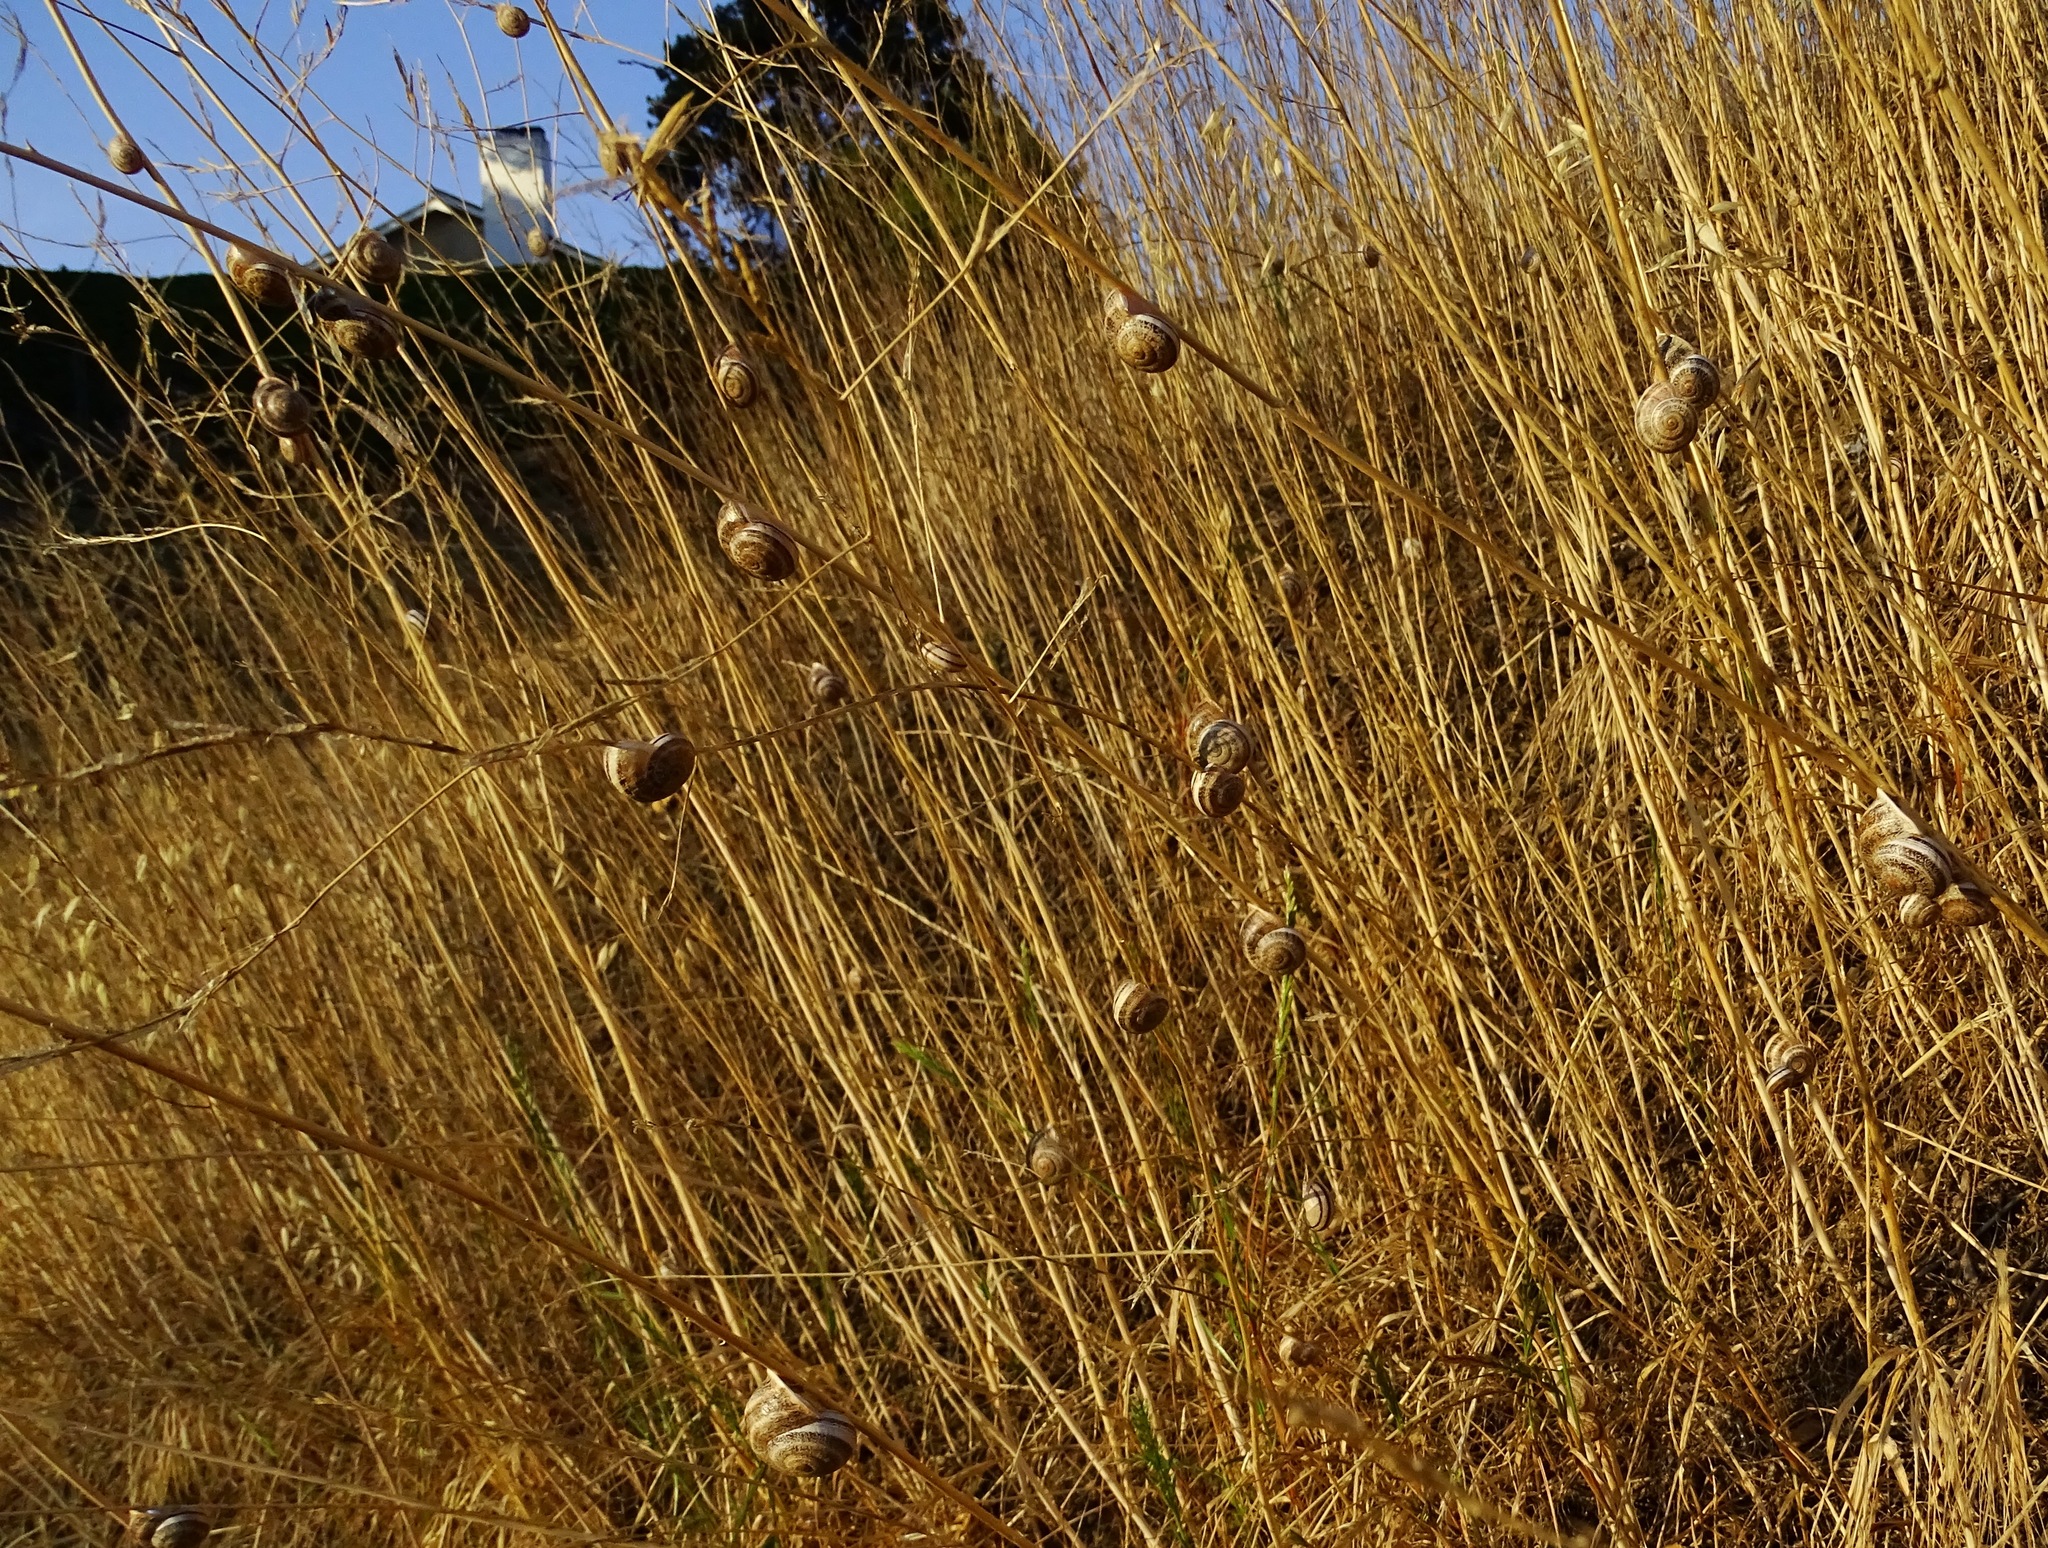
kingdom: Animalia
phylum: Mollusca
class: Gastropoda
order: Stylommatophora
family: Helicidae
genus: Otala
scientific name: Otala lactea
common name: Milk snail
